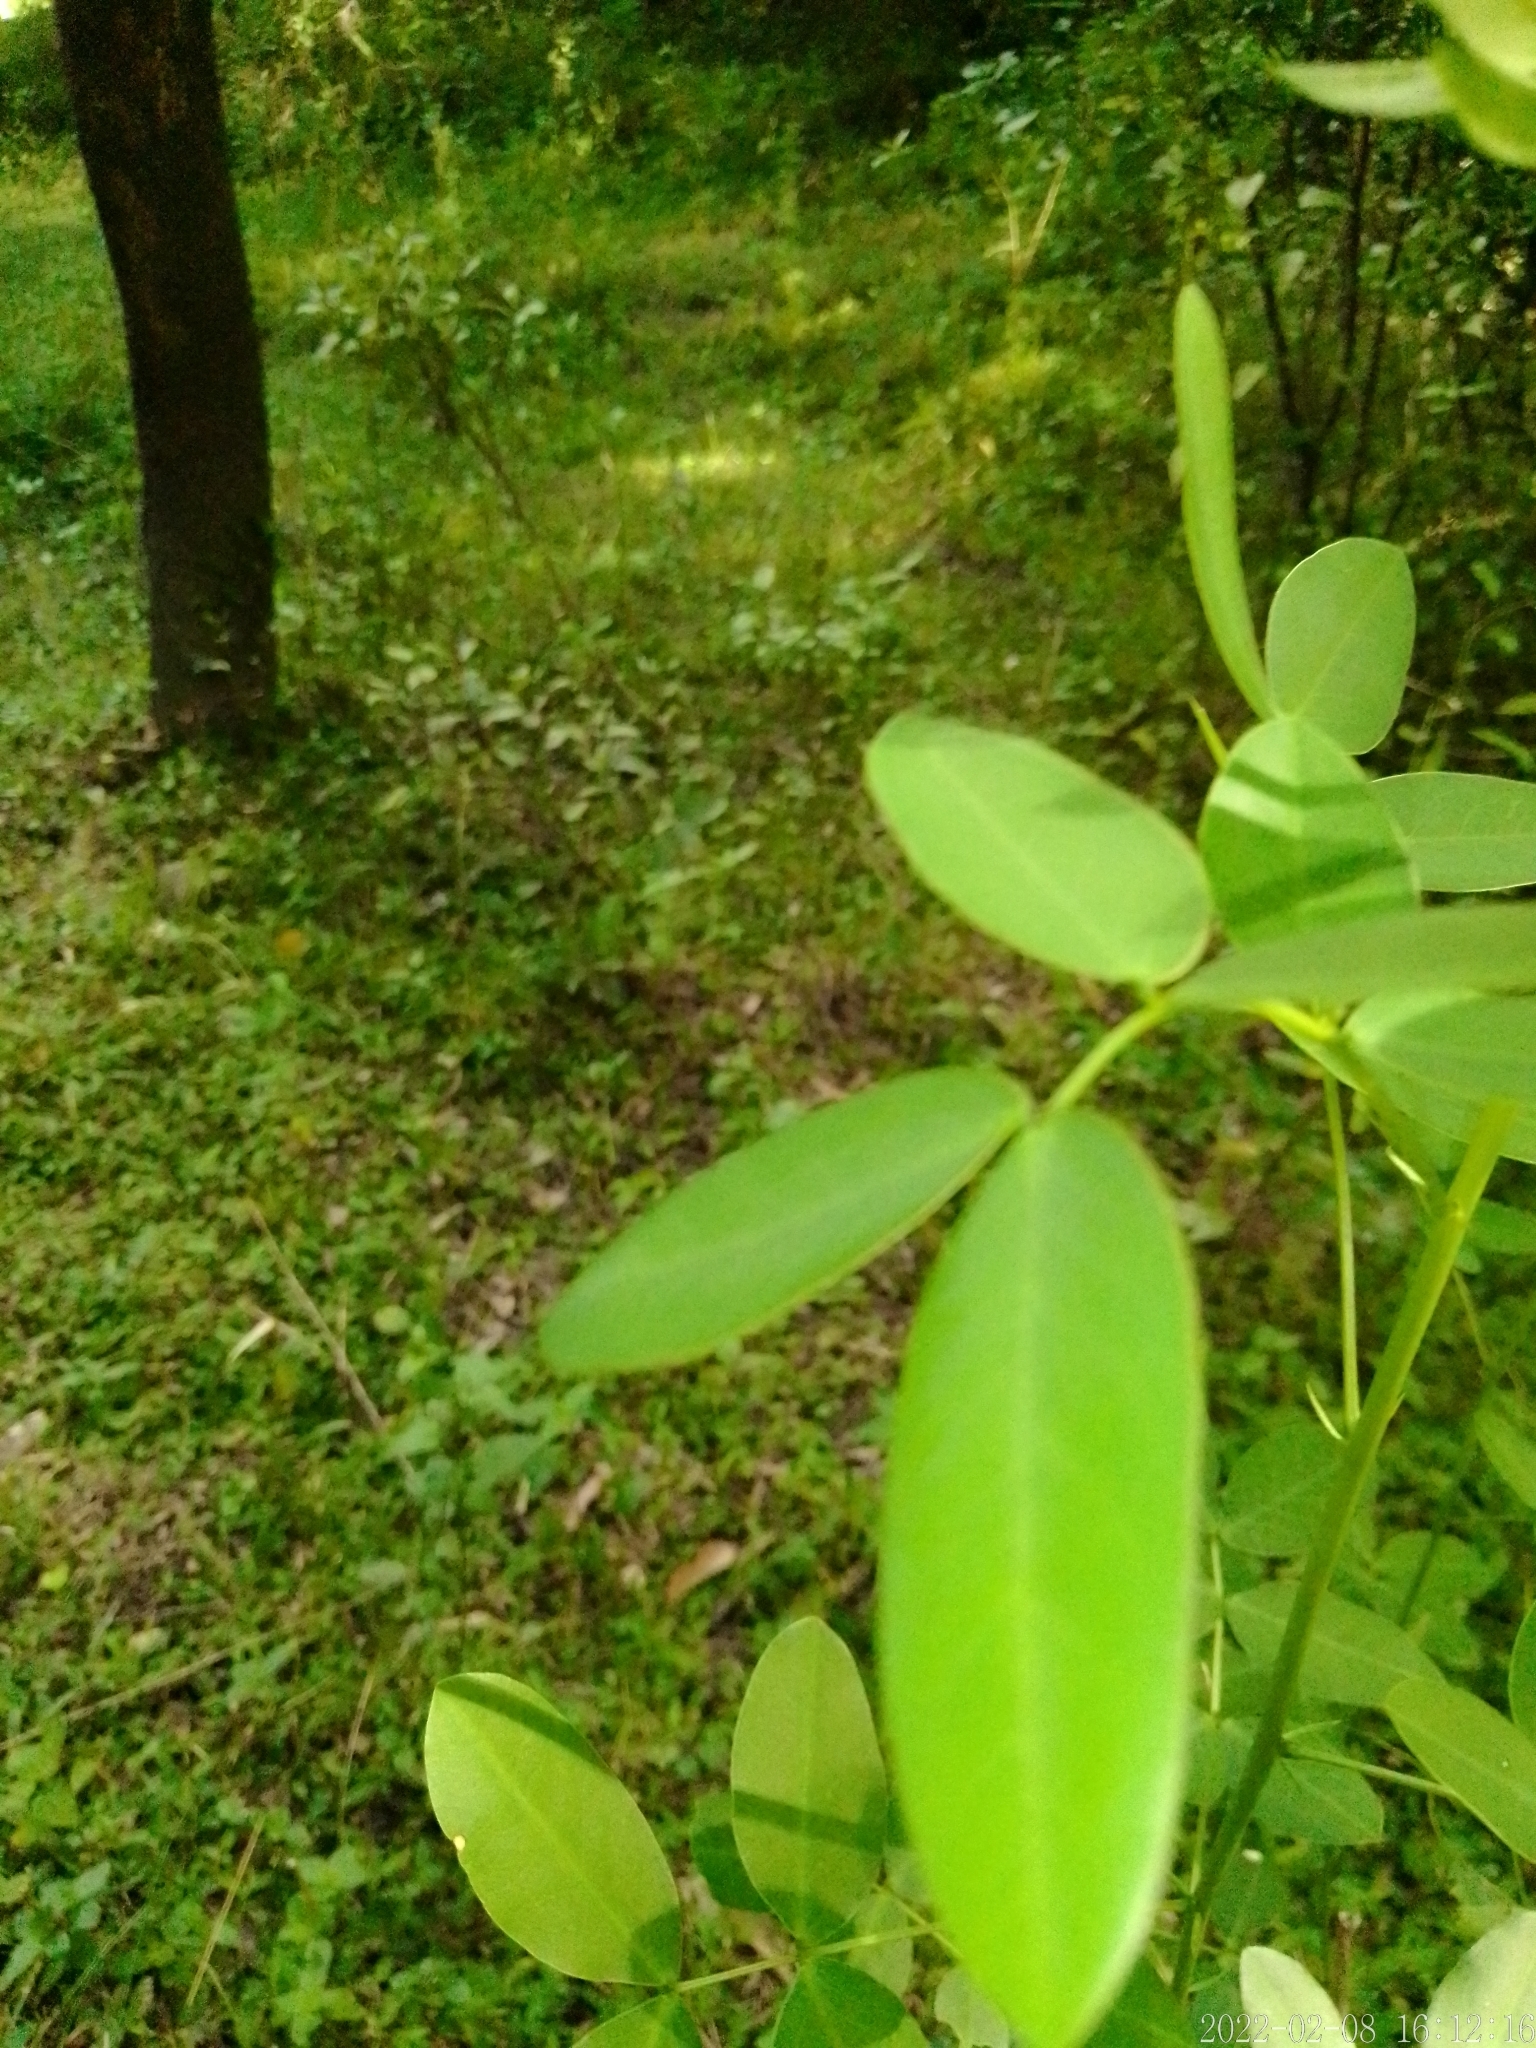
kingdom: Plantae
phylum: Tracheophyta
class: Magnoliopsida
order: Fabales
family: Fabaceae
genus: Senna
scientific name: Senna corymbosa
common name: Argentine senna
